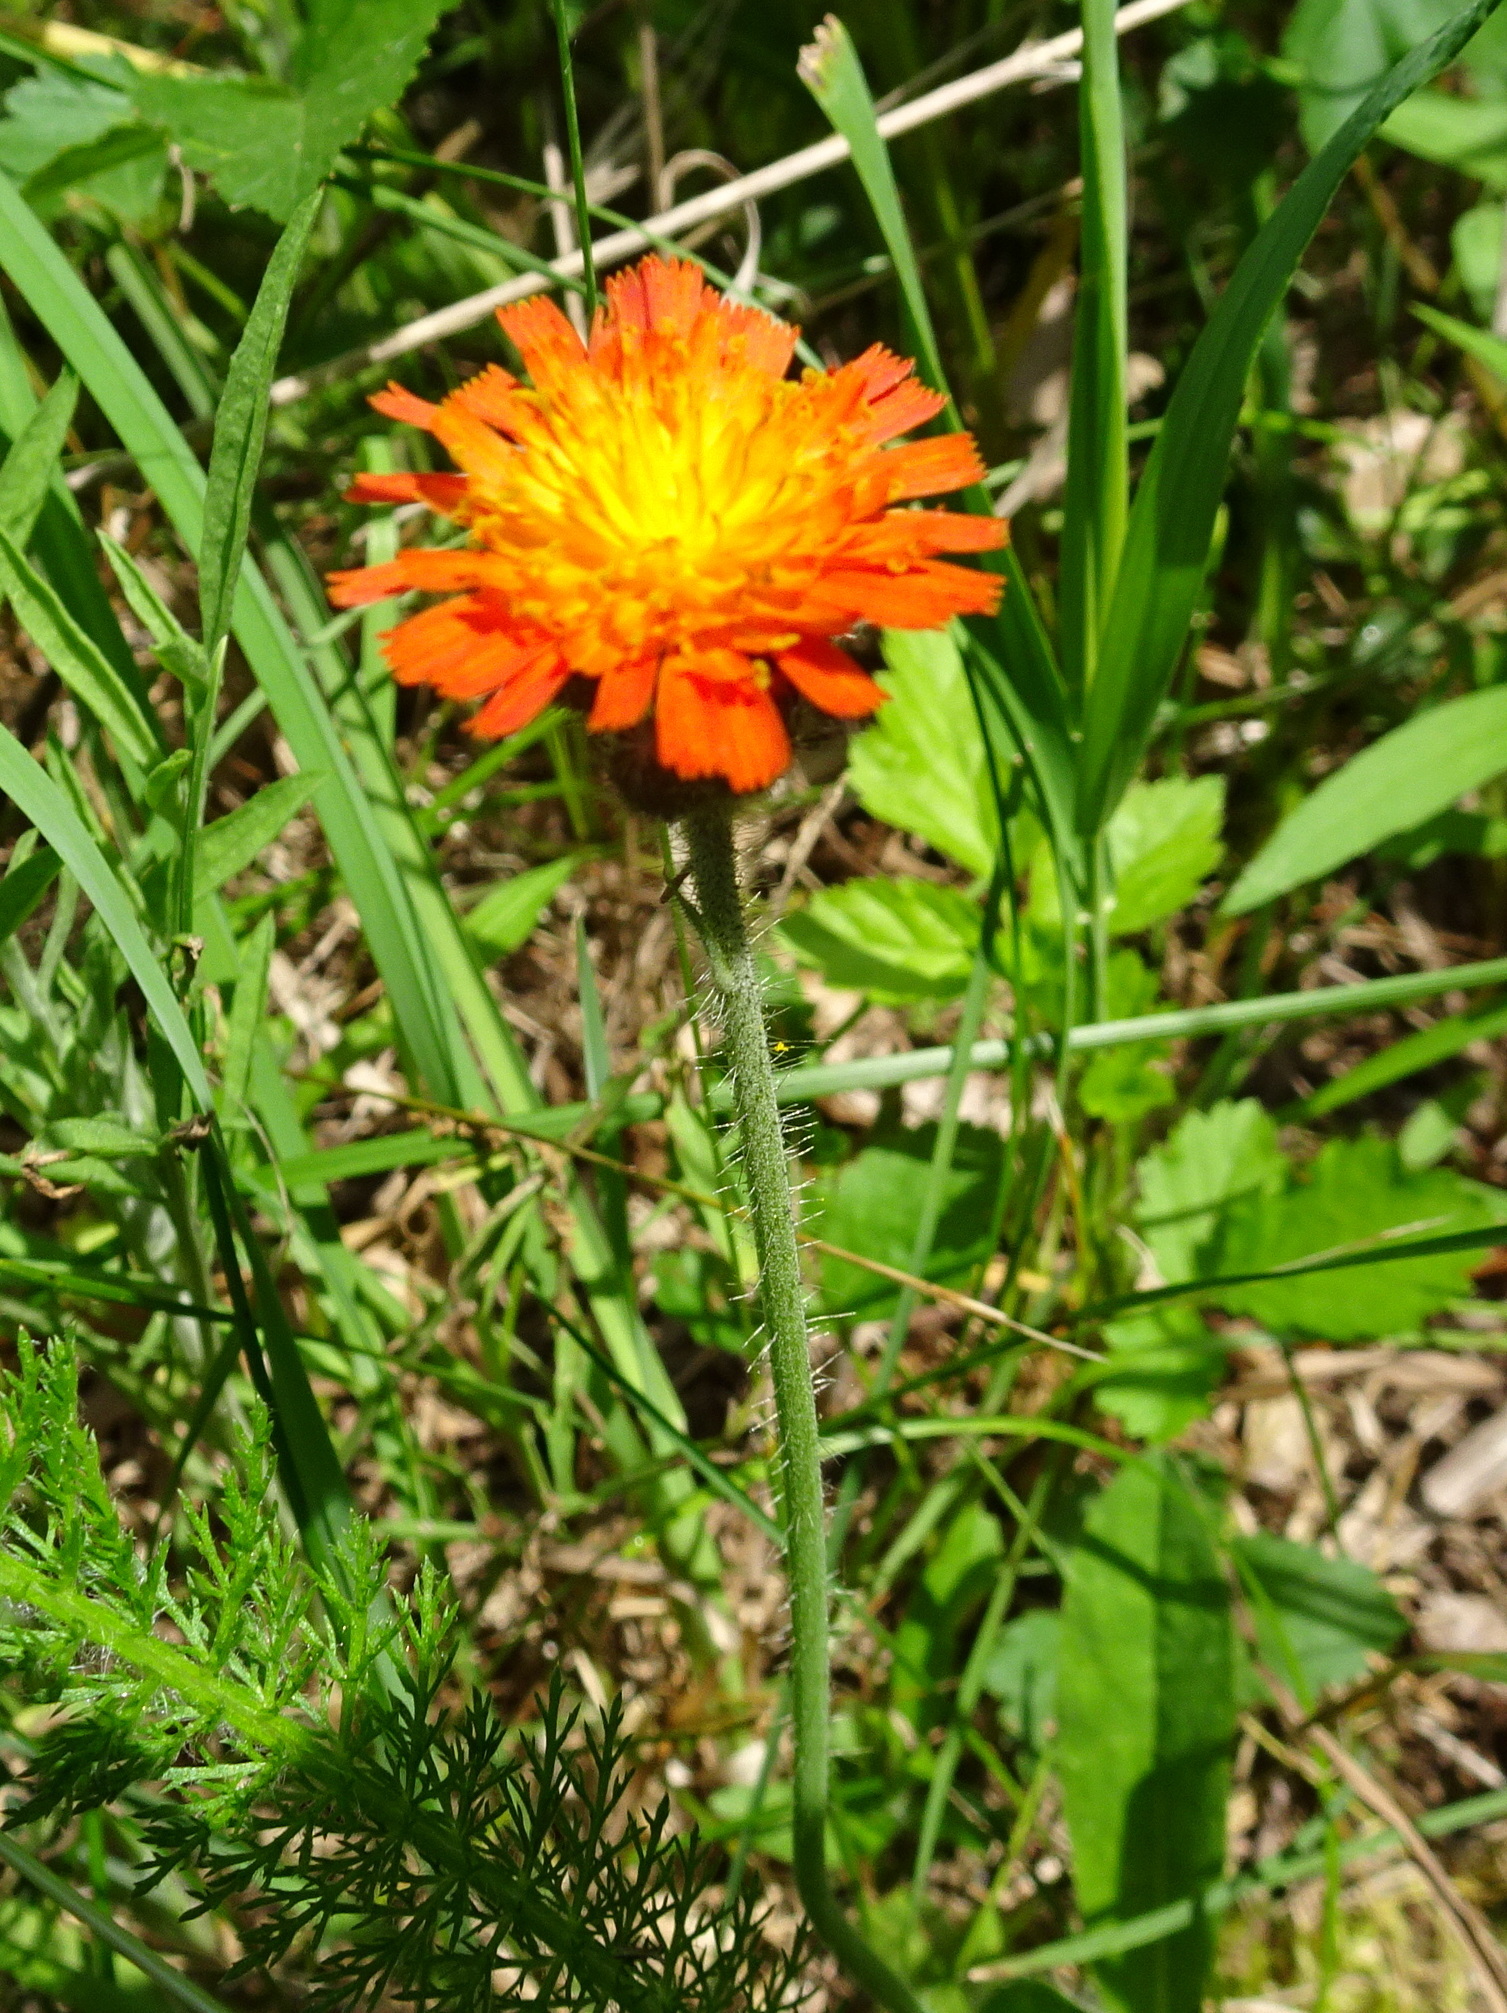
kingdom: Plantae
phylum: Tracheophyta
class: Magnoliopsida
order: Asterales
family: Asteraceae
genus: Pilosella
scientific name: Pilosella aurantiaca
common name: Fox-and-cubs
